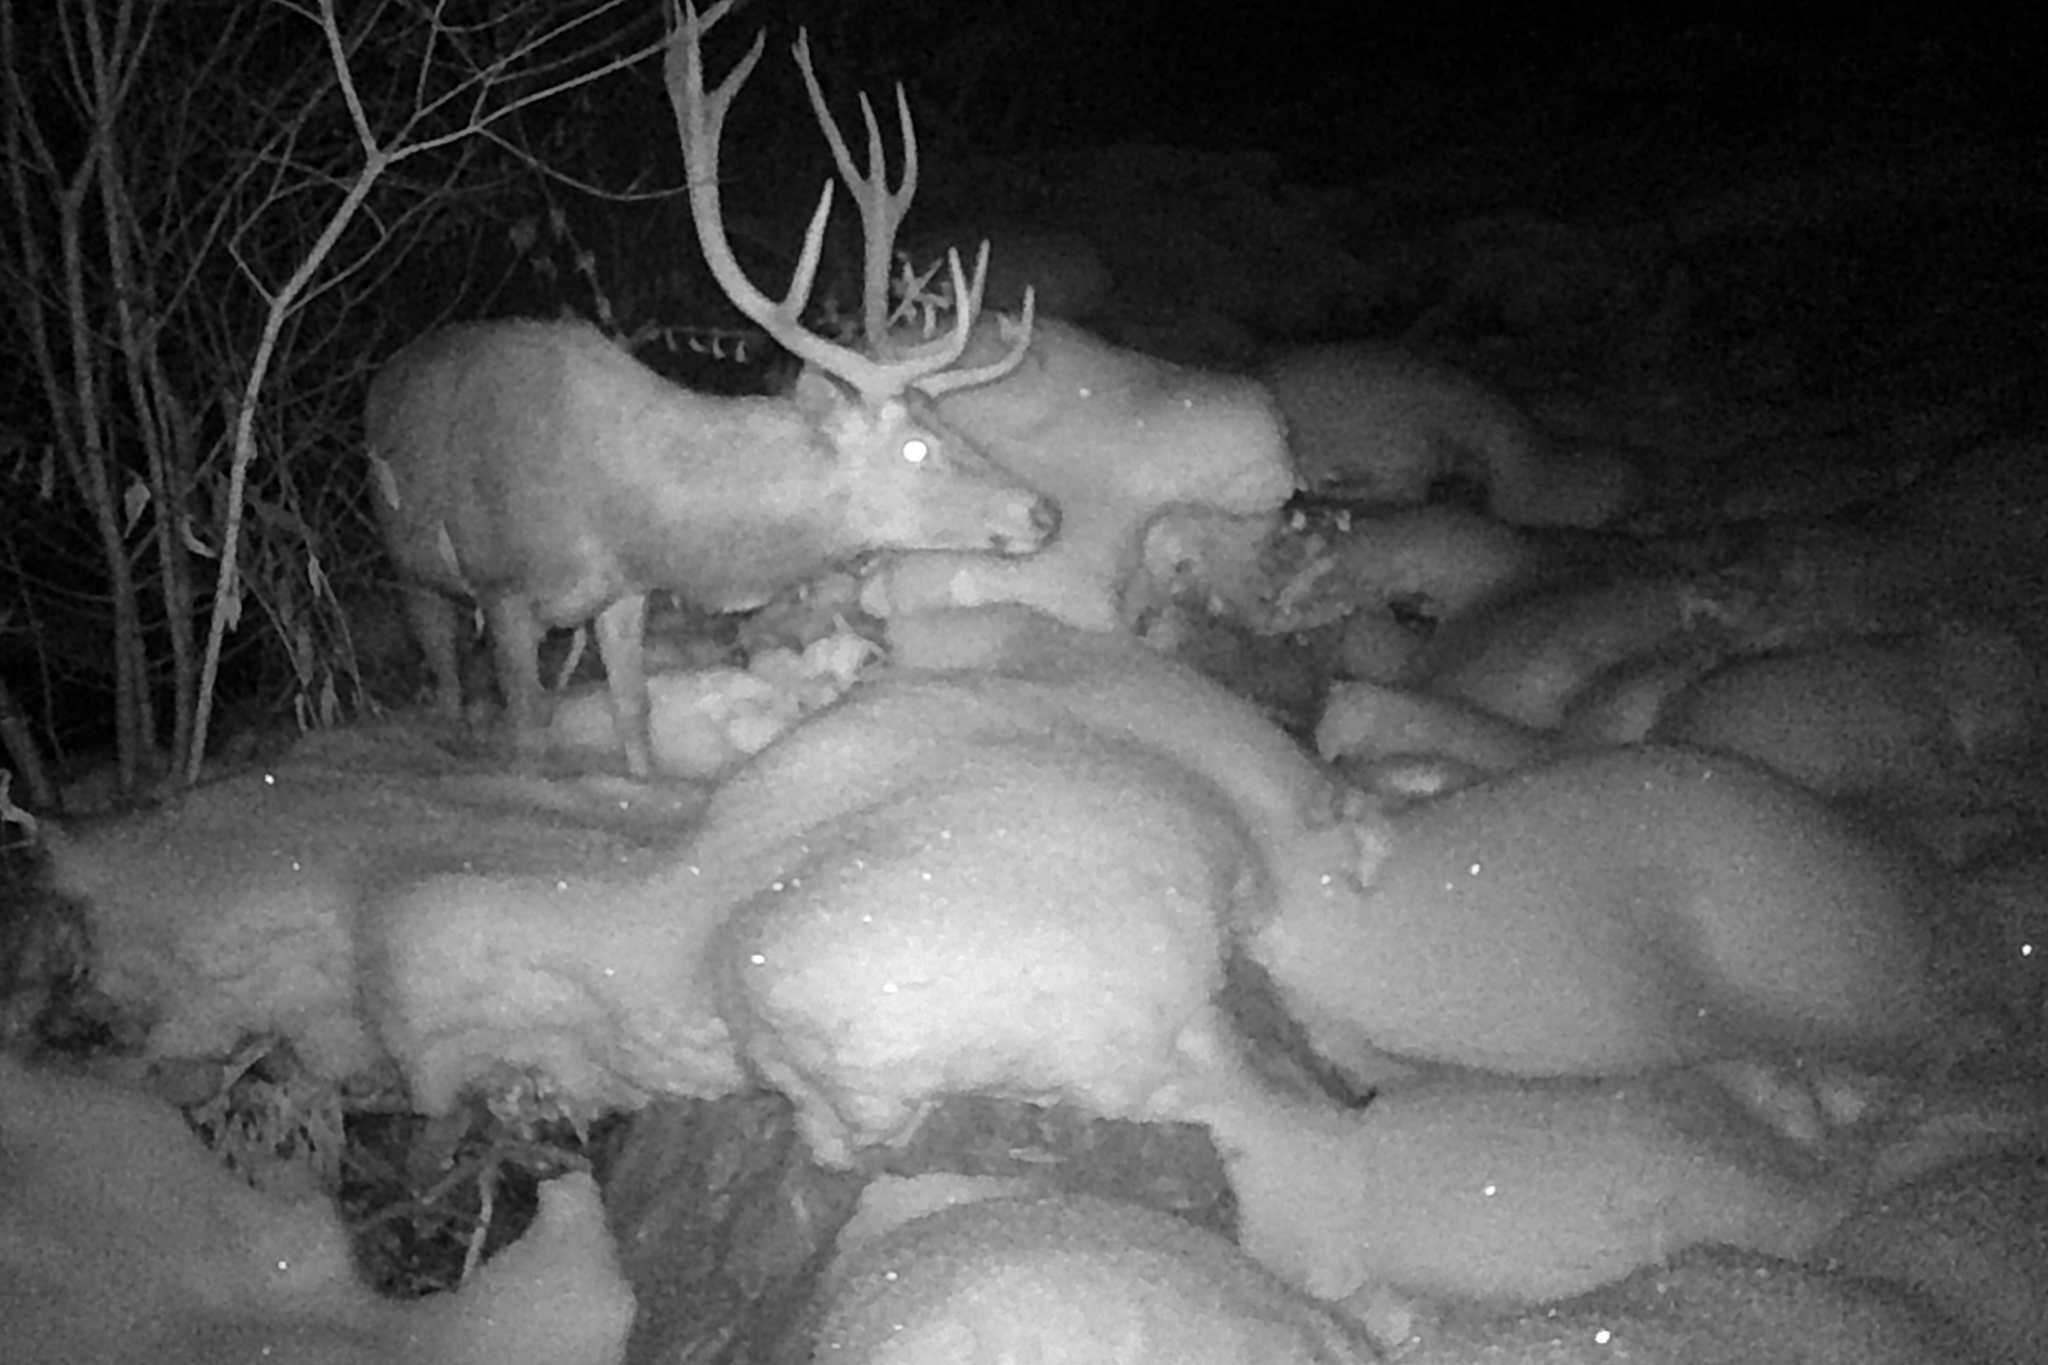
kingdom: Animalia
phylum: Chordata
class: Mammalia
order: Artiodactyla
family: Cervidae
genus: Cervus
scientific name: Cervus elaphus
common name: Red deer
